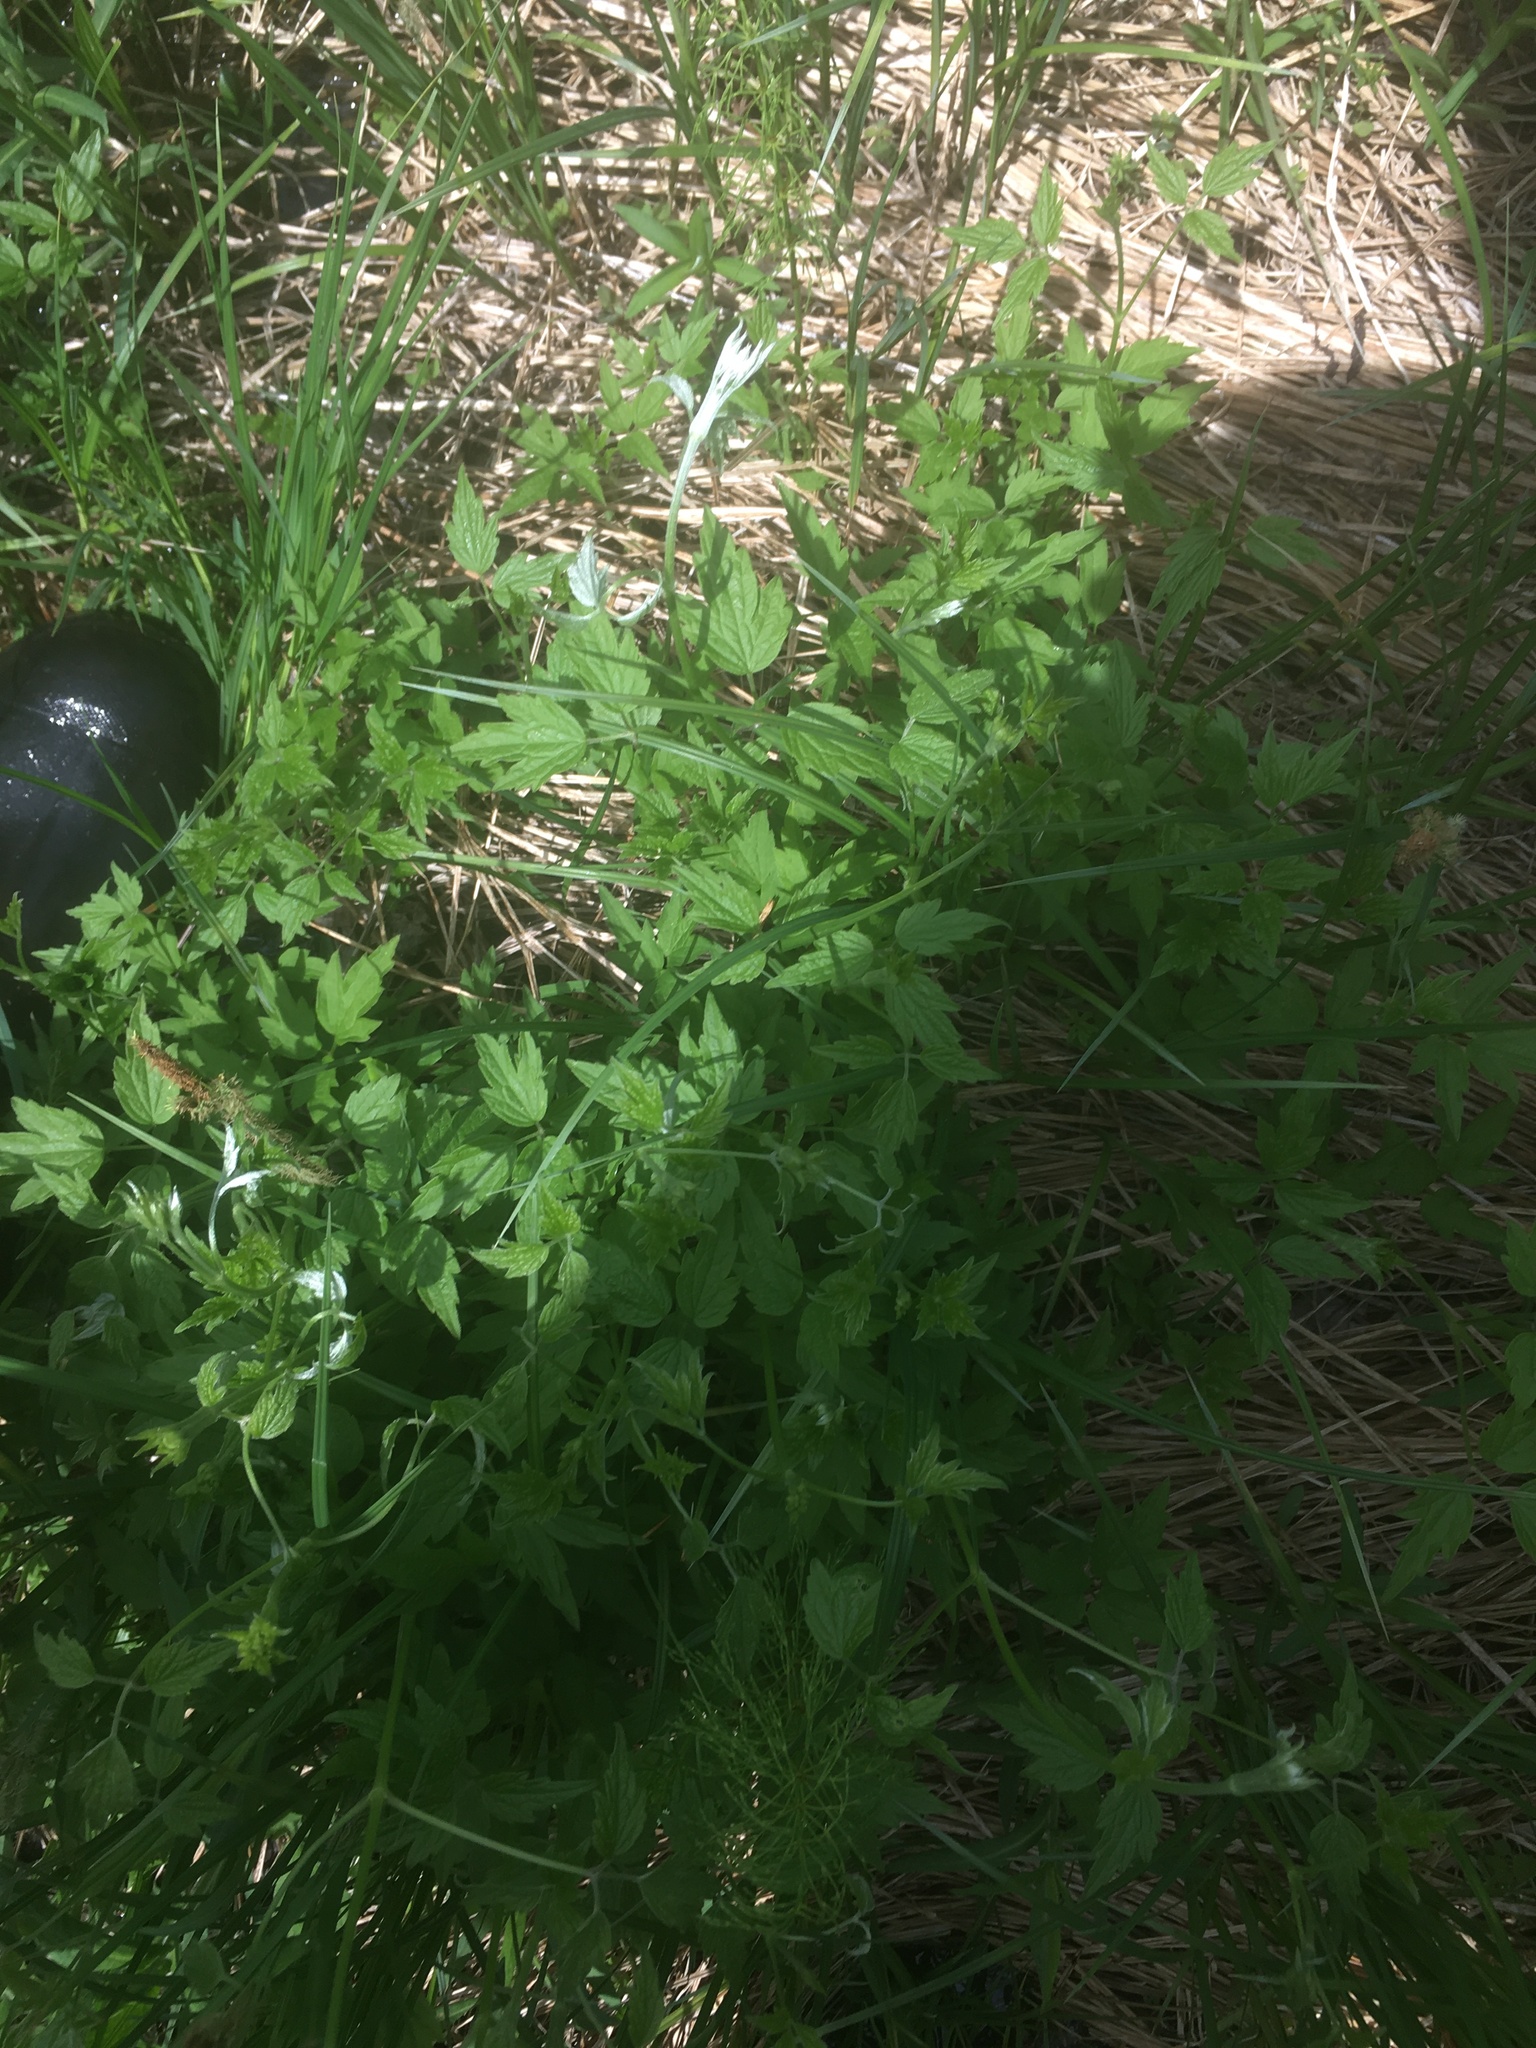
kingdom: Plantae
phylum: Tracheophyta
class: Magnoliopsida
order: Ranunculales
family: Ranunculaceae
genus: Clematis
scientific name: Clematis virginiana
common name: Virgin's-bower
